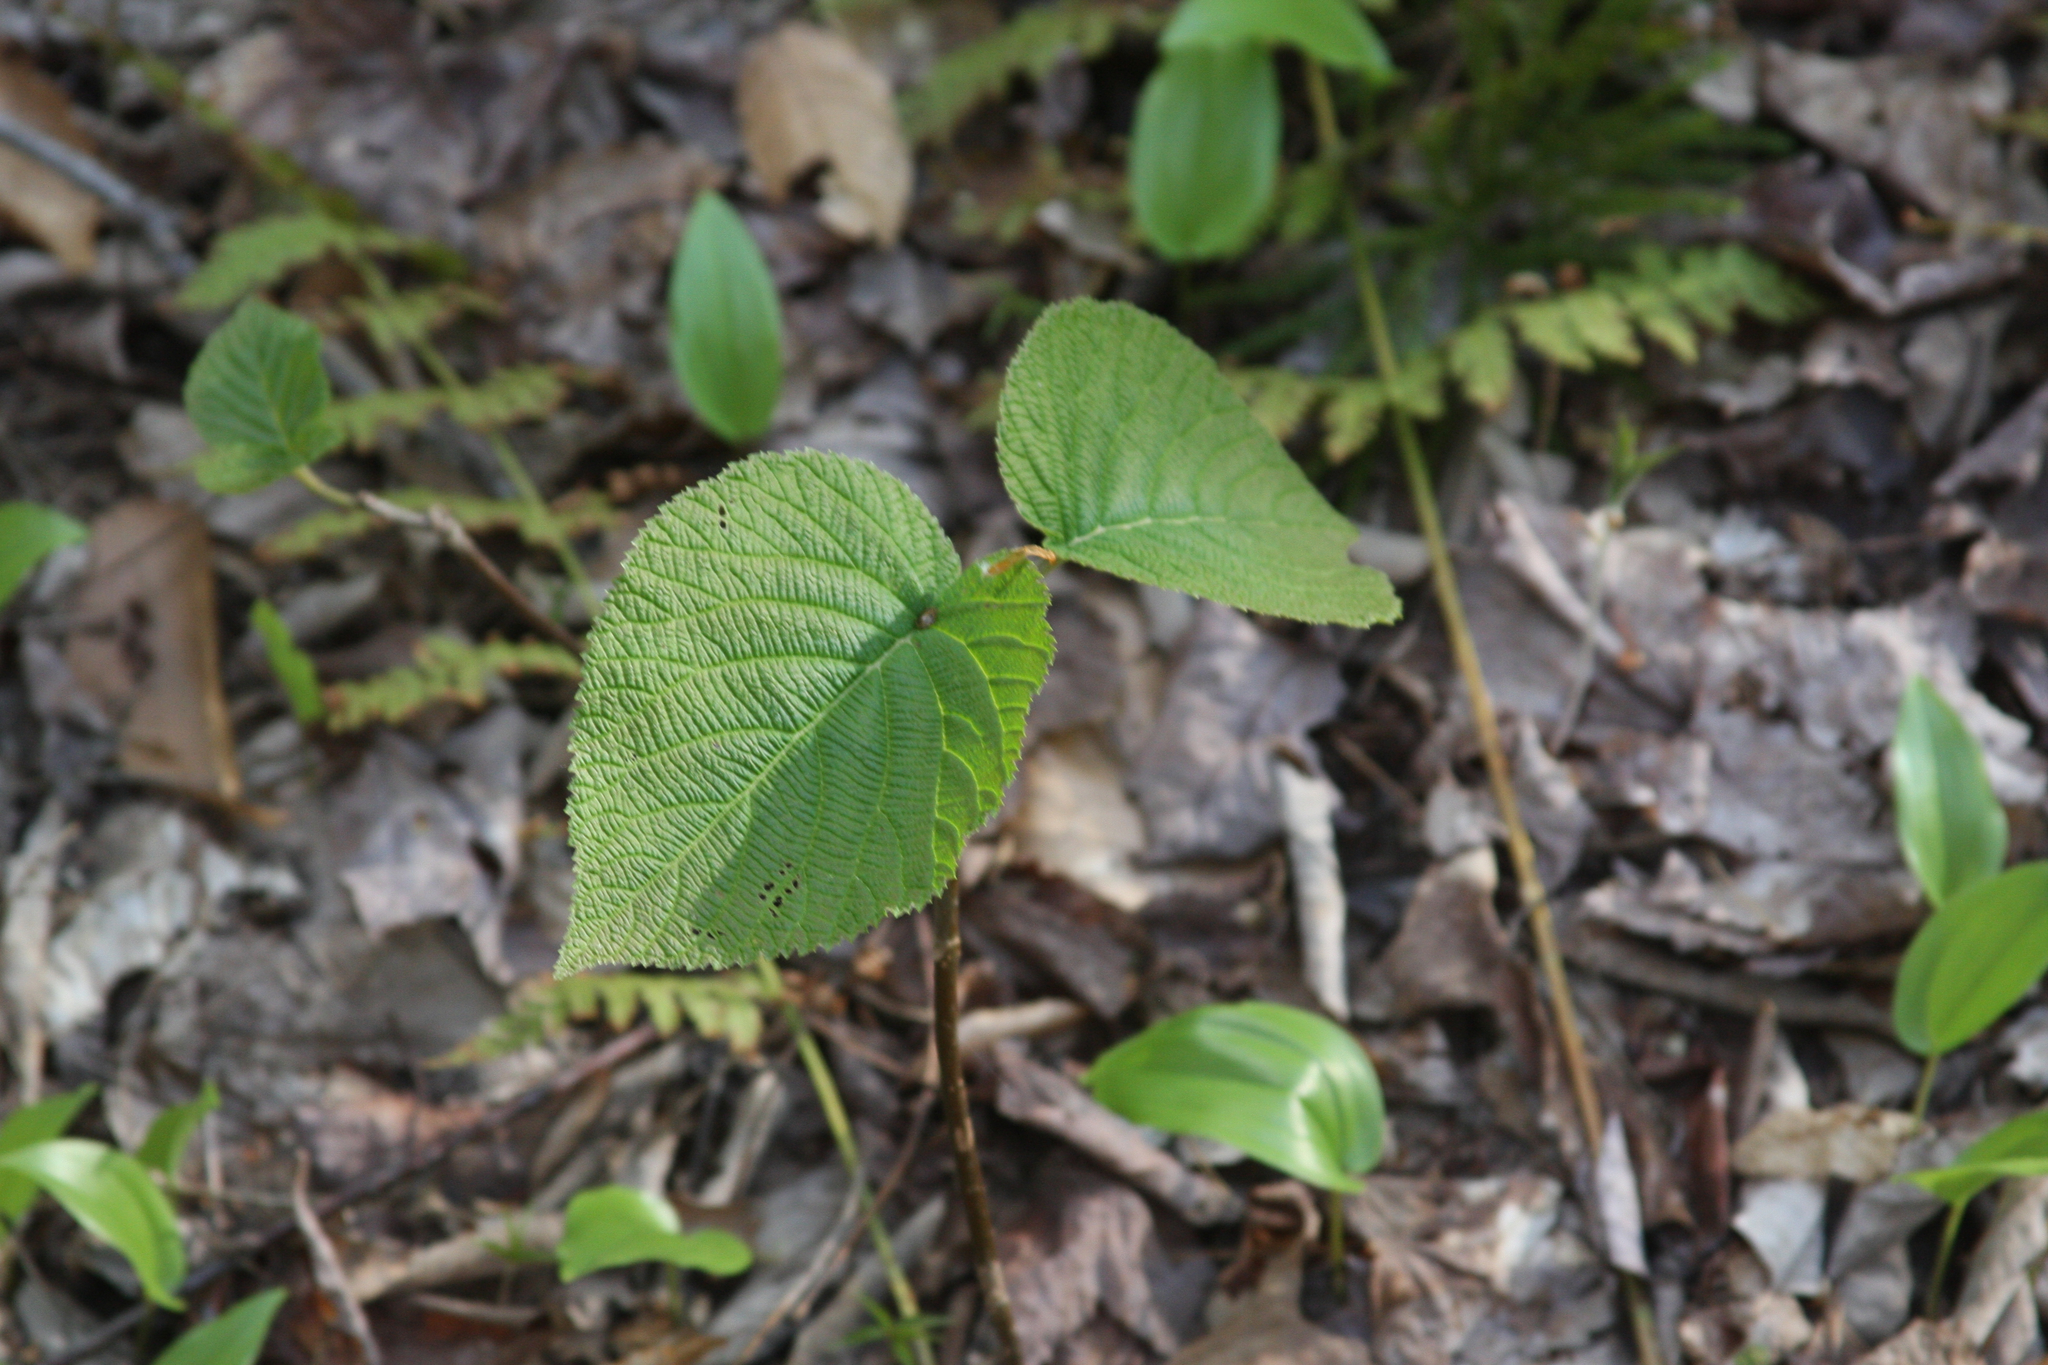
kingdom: Plantae
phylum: Tracheophyta
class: Magnoliopsida
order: Dipsacales
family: Viburnaceae
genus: Viburnum
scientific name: Viburnum lantanoides
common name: Hobblebush
